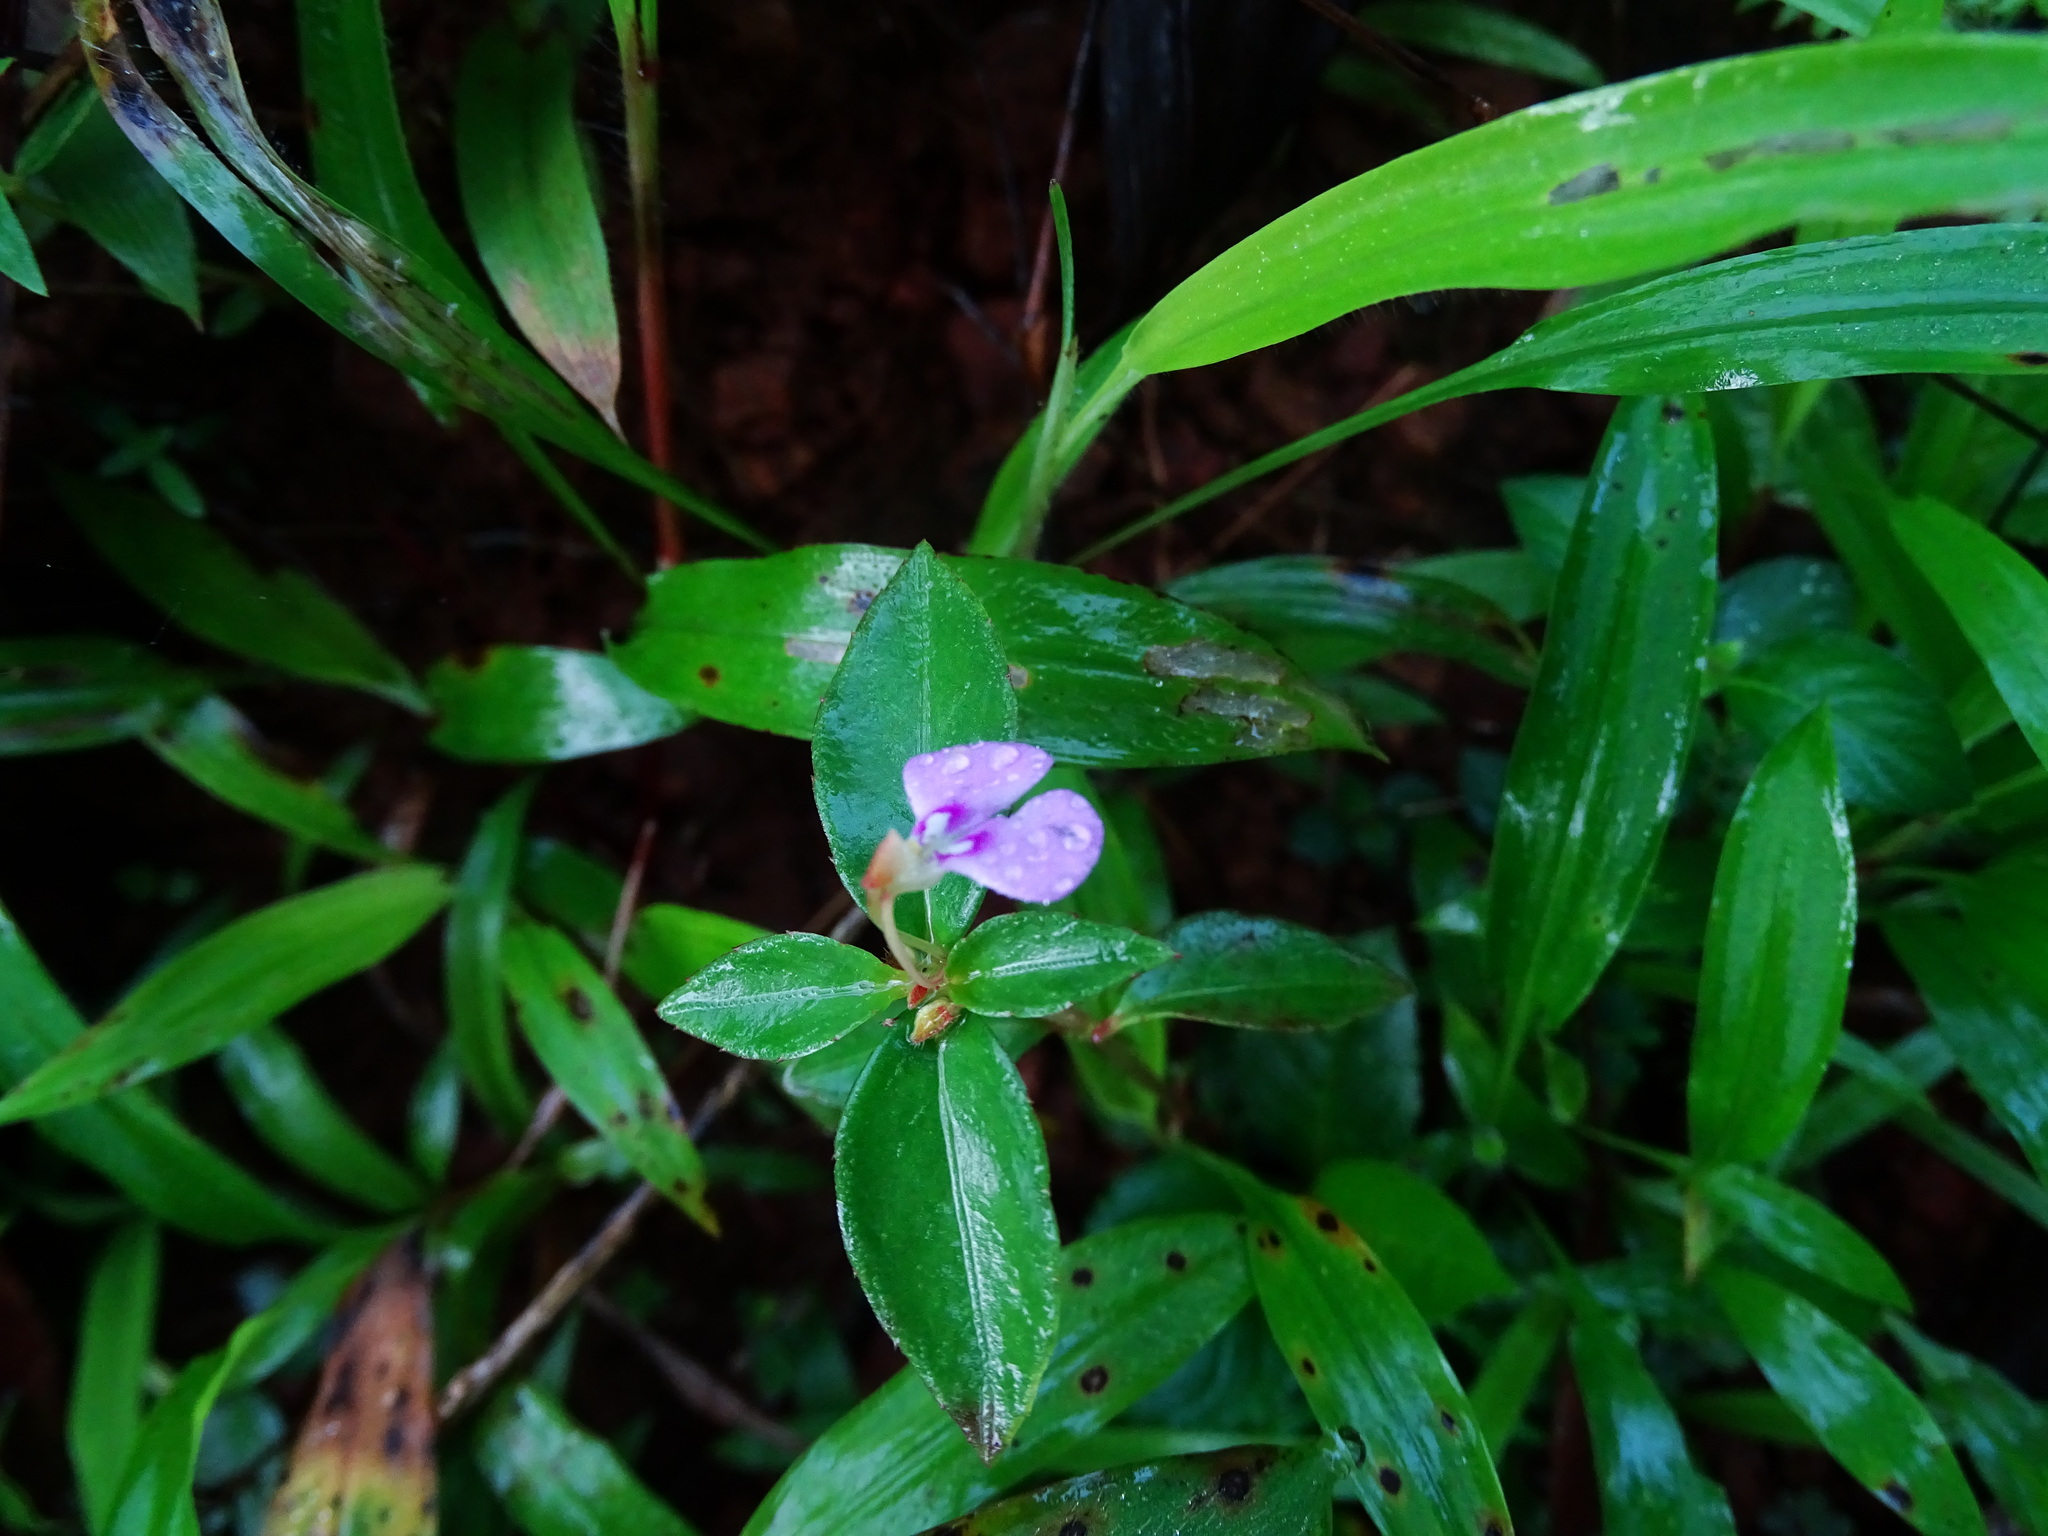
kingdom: Plantae
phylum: Tracheophyta
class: Magnoliopsida
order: Ericales
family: Balsaminaceae
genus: Impatiens
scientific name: Impatiens minor
